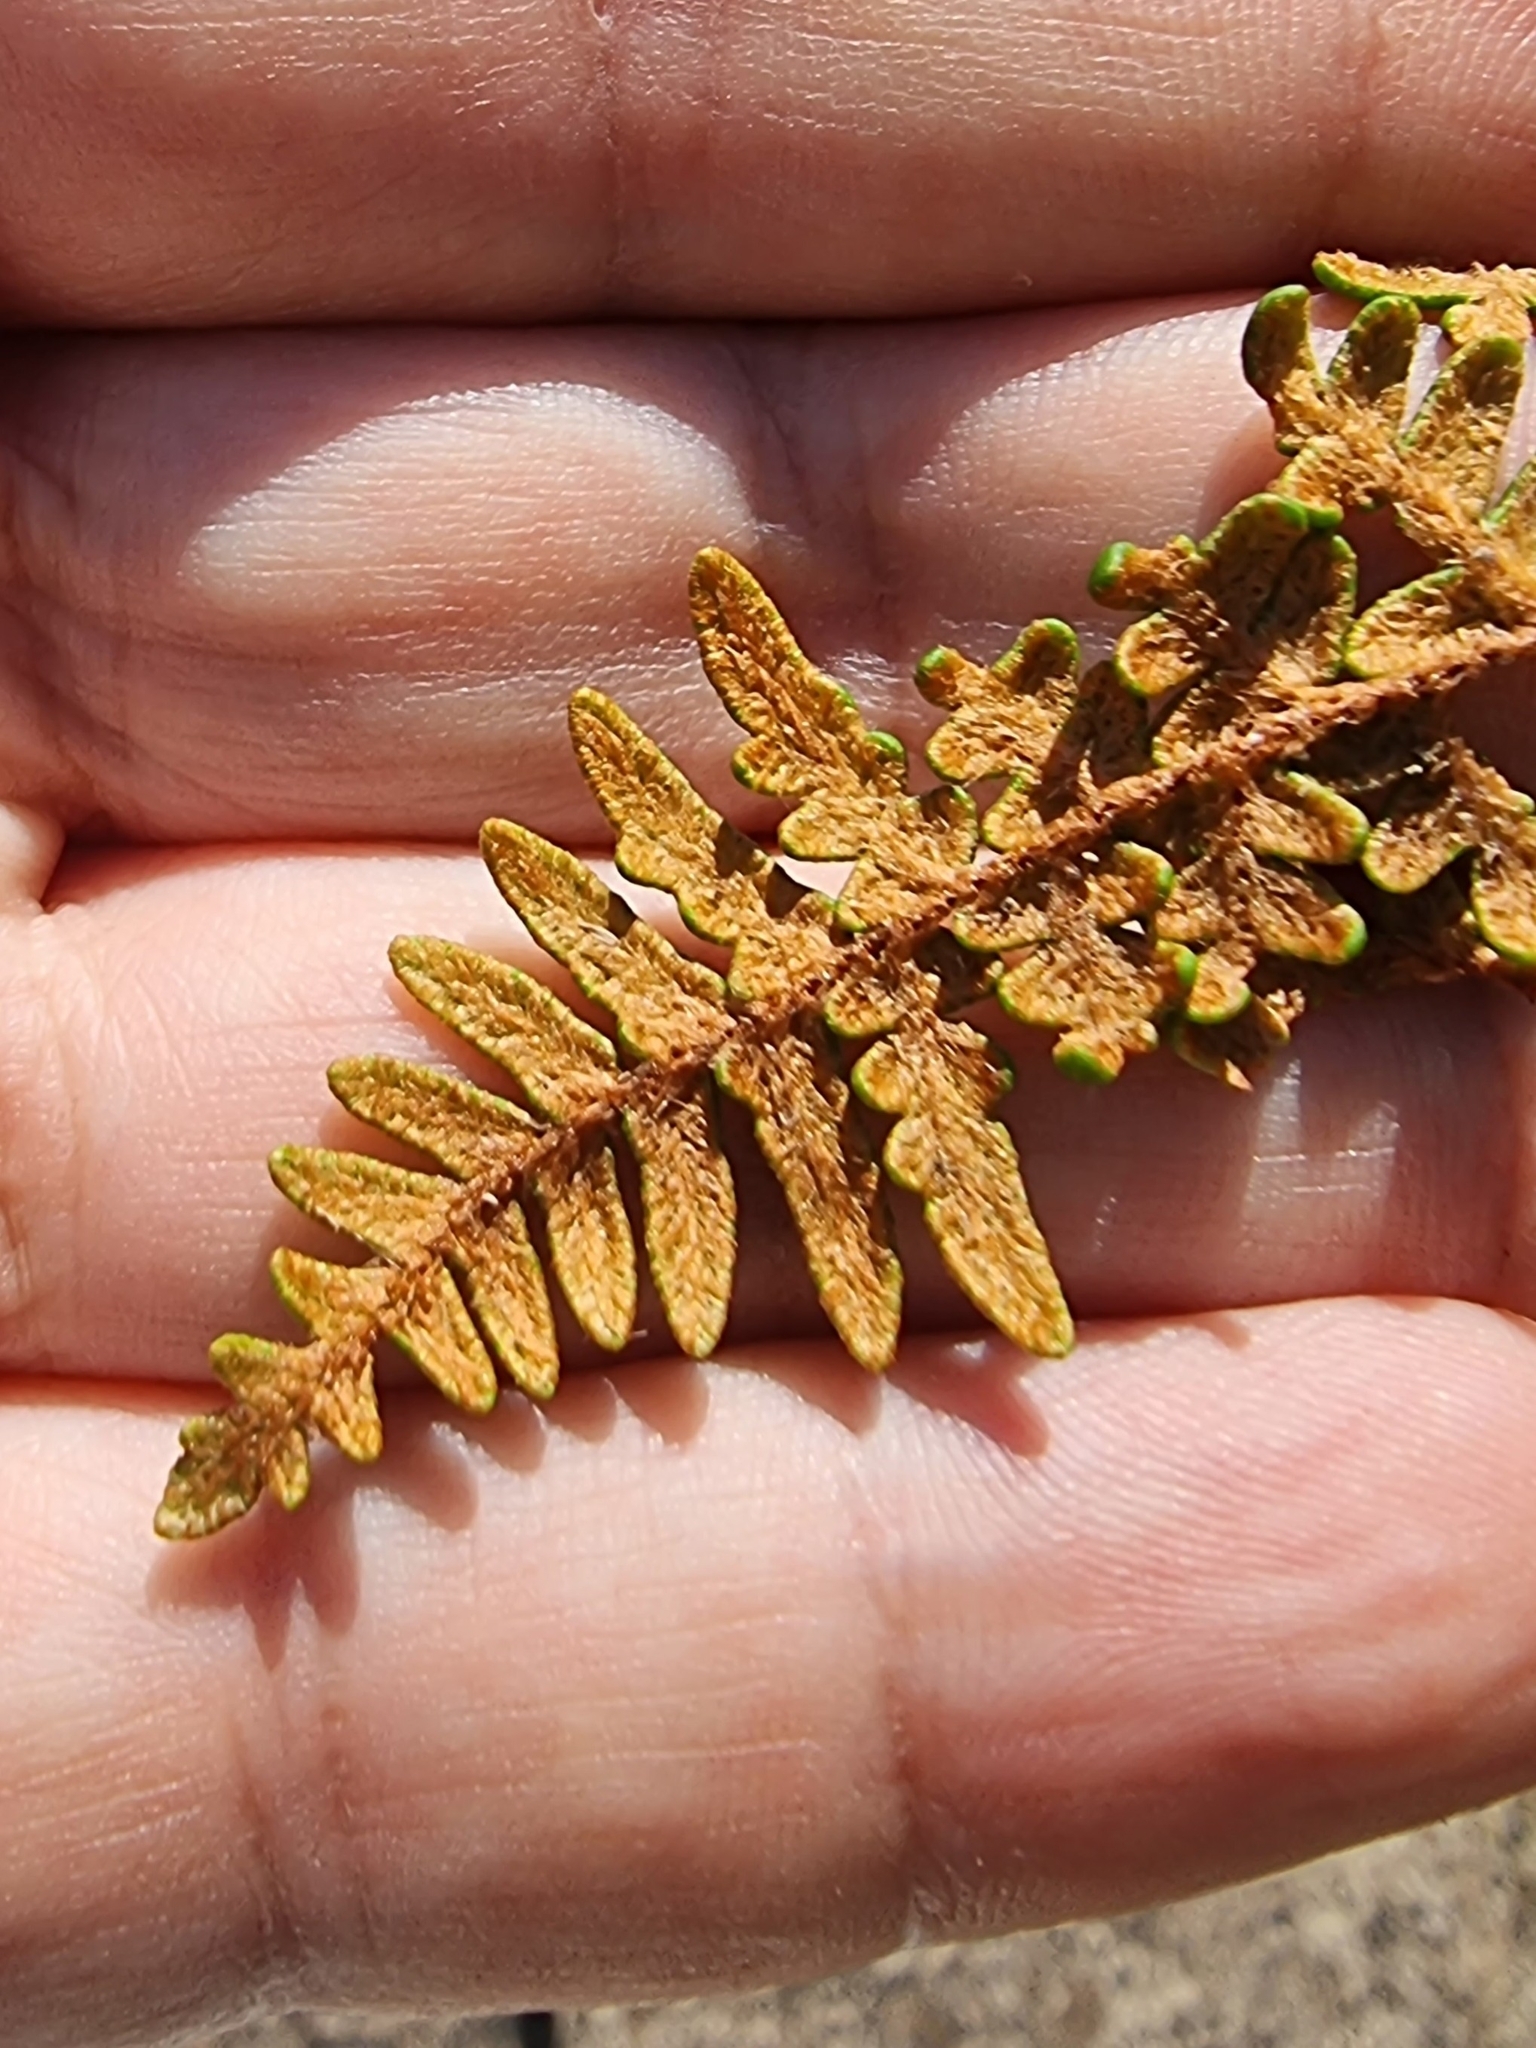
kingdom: Plantae
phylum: Tracheophyta
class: Polypodiopsida
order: Polypodiales
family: Pteridaceae
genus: Paragymnopteris
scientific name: Paragymnopteris marantae
